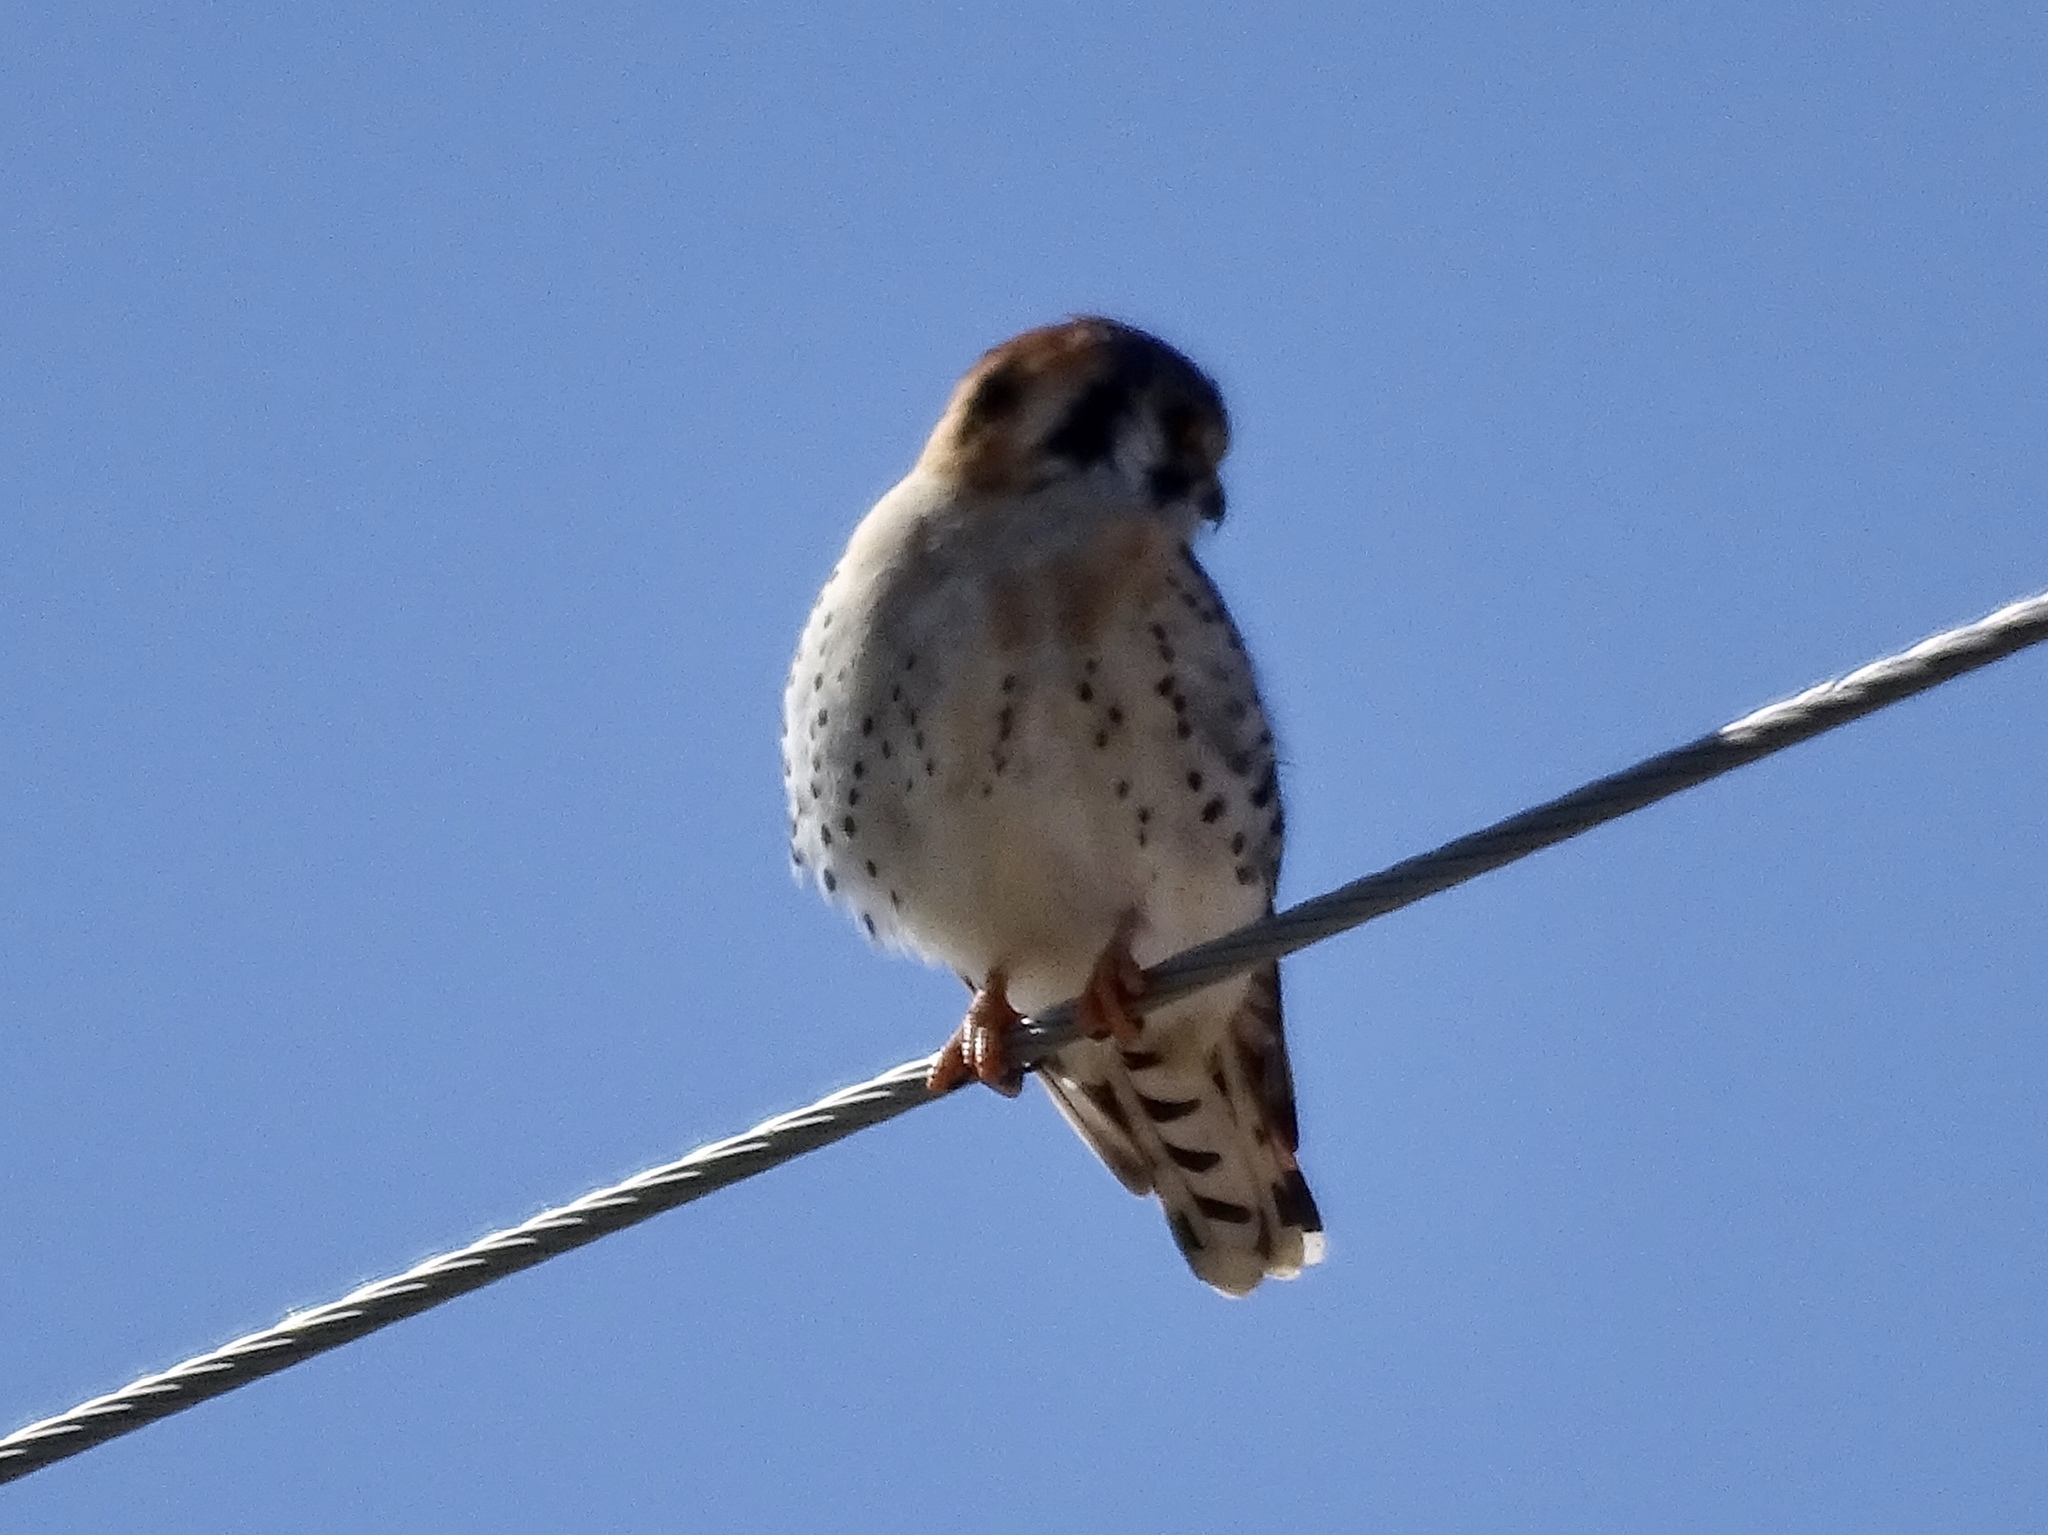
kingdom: Animalia
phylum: Chordata
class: Aves
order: Falconiformes
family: Falconidae
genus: Falco
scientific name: Falco sparverius
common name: American kestrel
